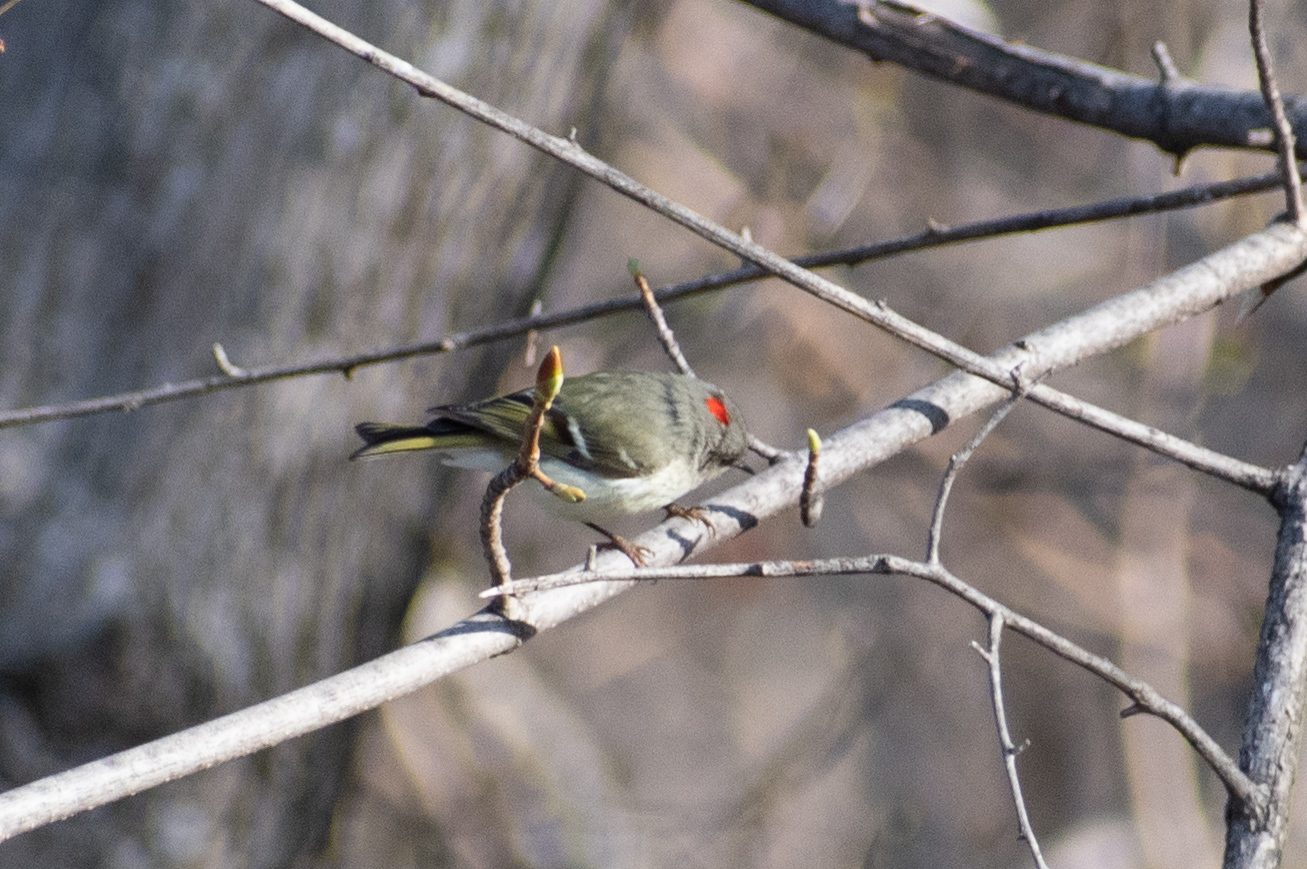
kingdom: Animalia
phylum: Chordata
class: Aves
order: Passeriformes
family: Regulidae
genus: Regulus
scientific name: Regulus calendula
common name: Ruby-crowned kinglet
